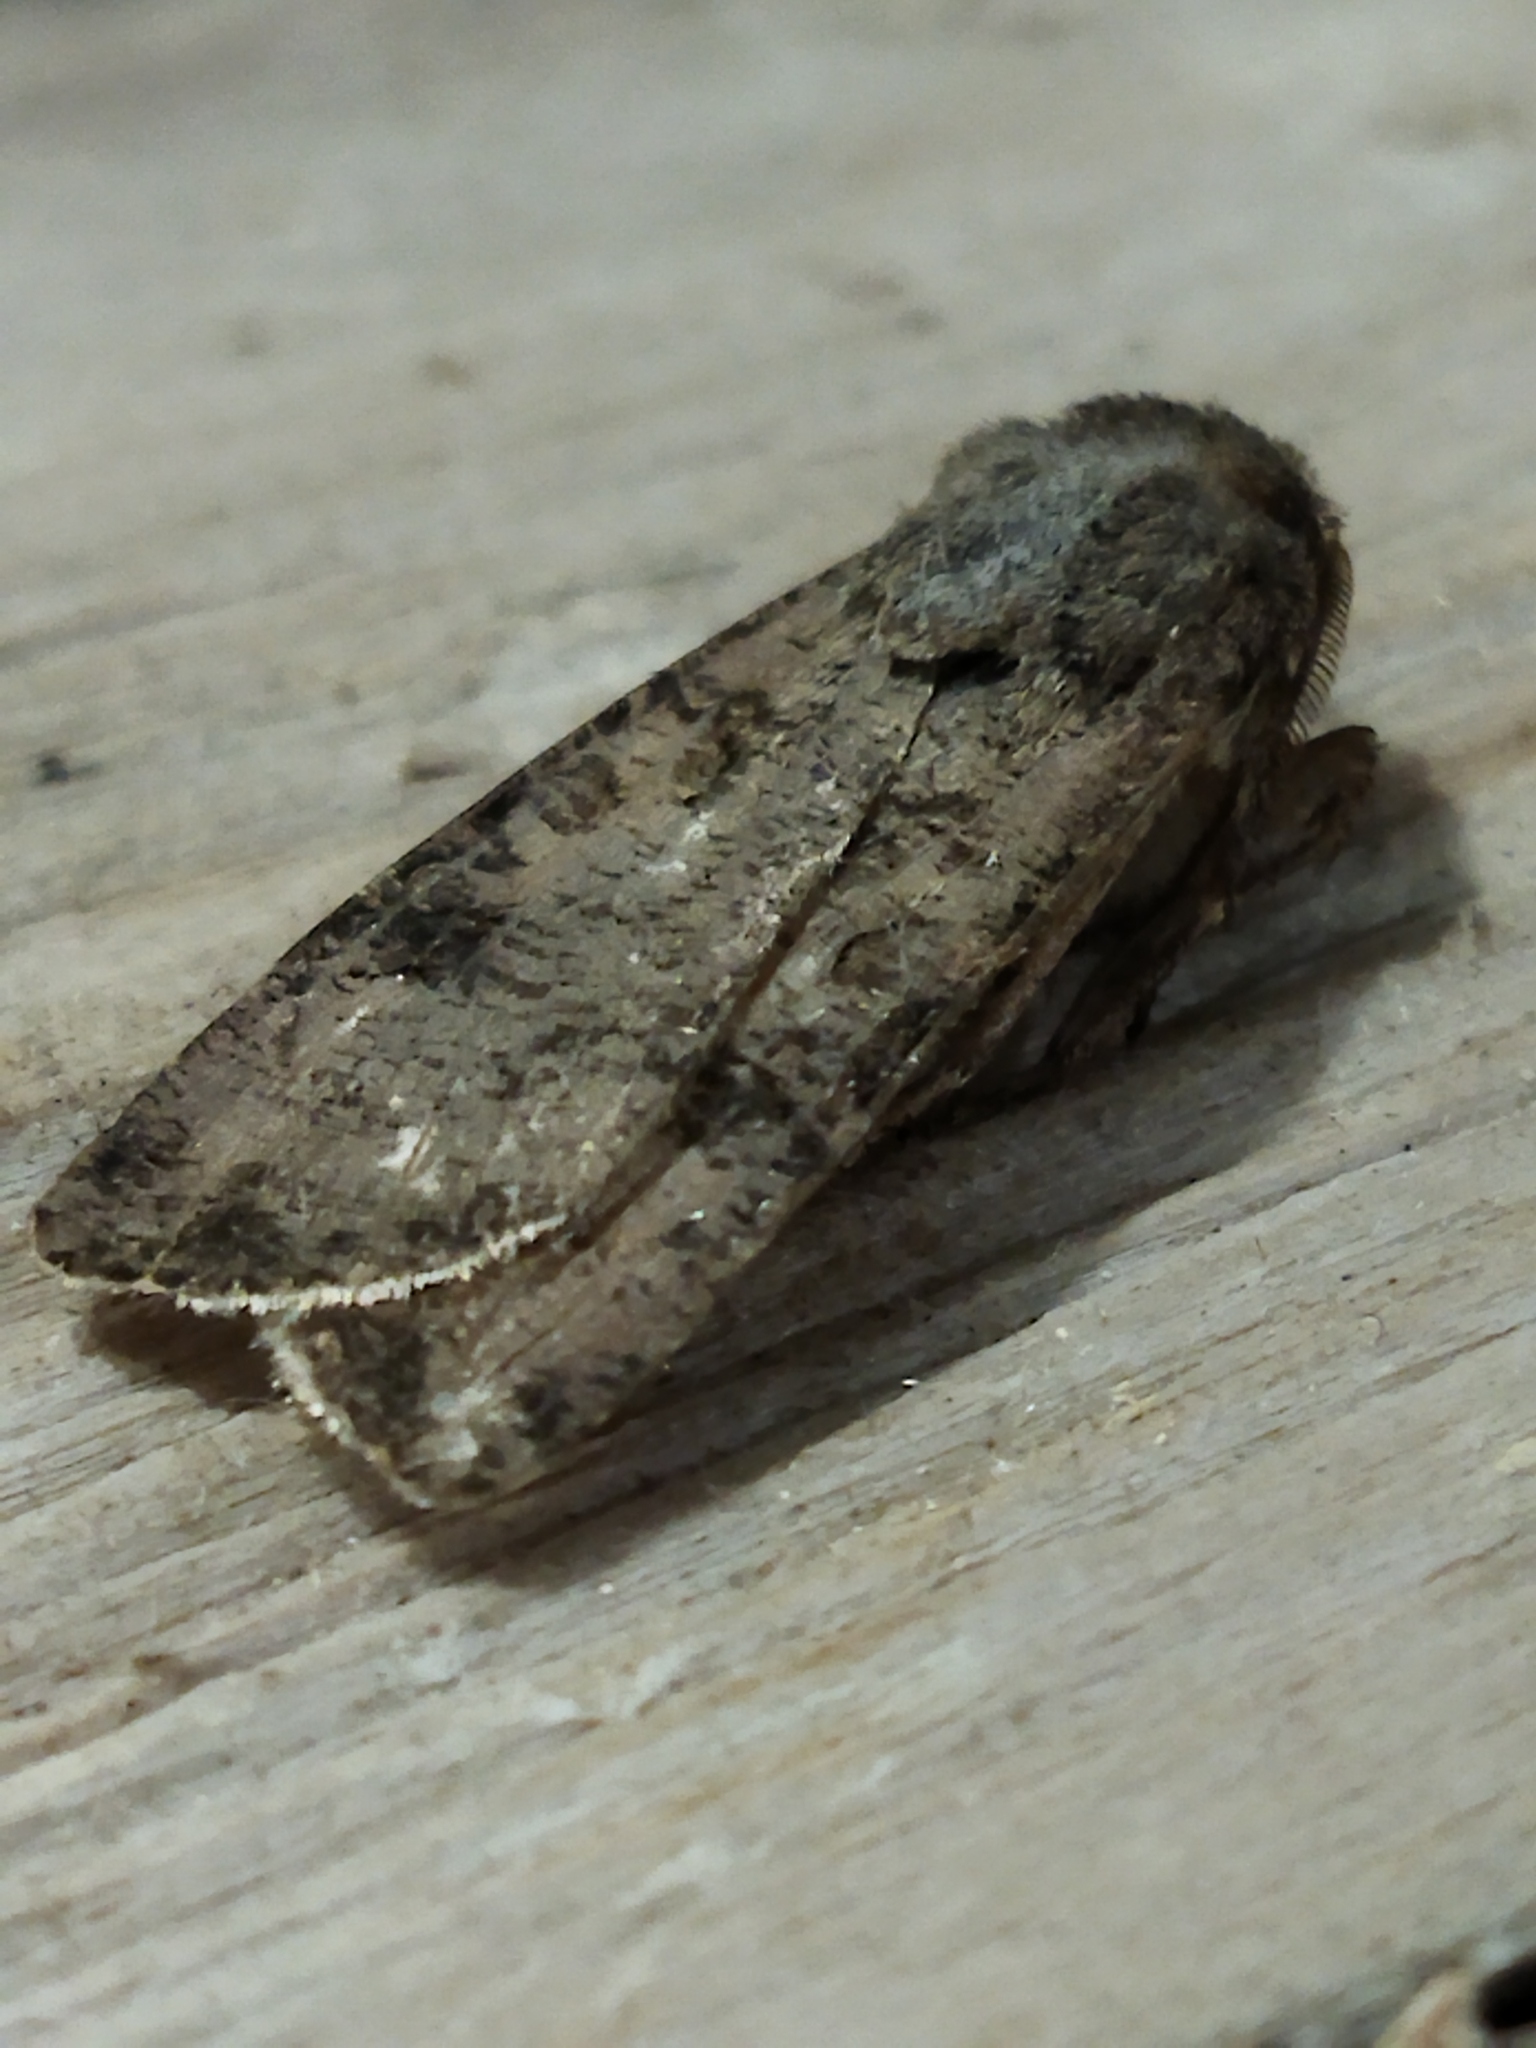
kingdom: Animalia
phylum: Arthropoda
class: Insecta
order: Lepidoptera
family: Noctuidae
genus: Agrotis
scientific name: Agrotis segetum
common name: Turnip moth
